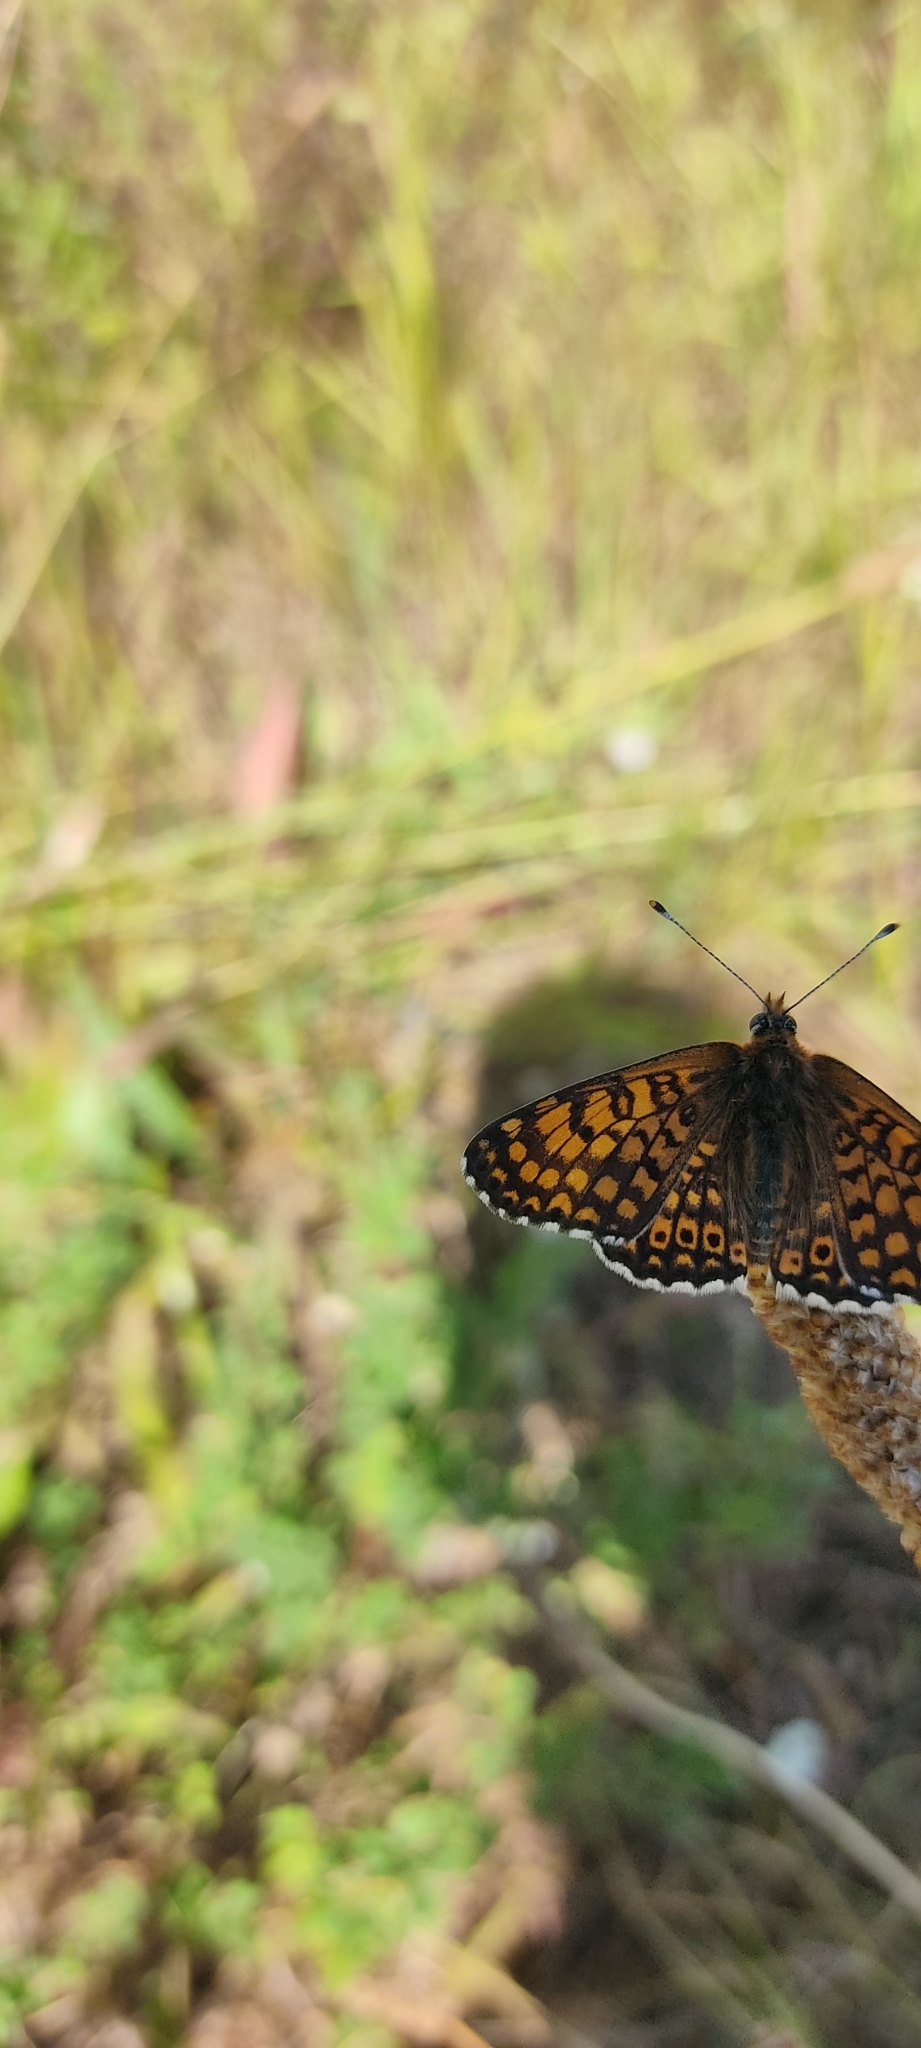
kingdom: Animalia
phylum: Arthropoda
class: Insecta
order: Lepidoptera
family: Nymphalidae
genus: Melitaea
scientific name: Melitaea cinxia
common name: Glanville fritillary
